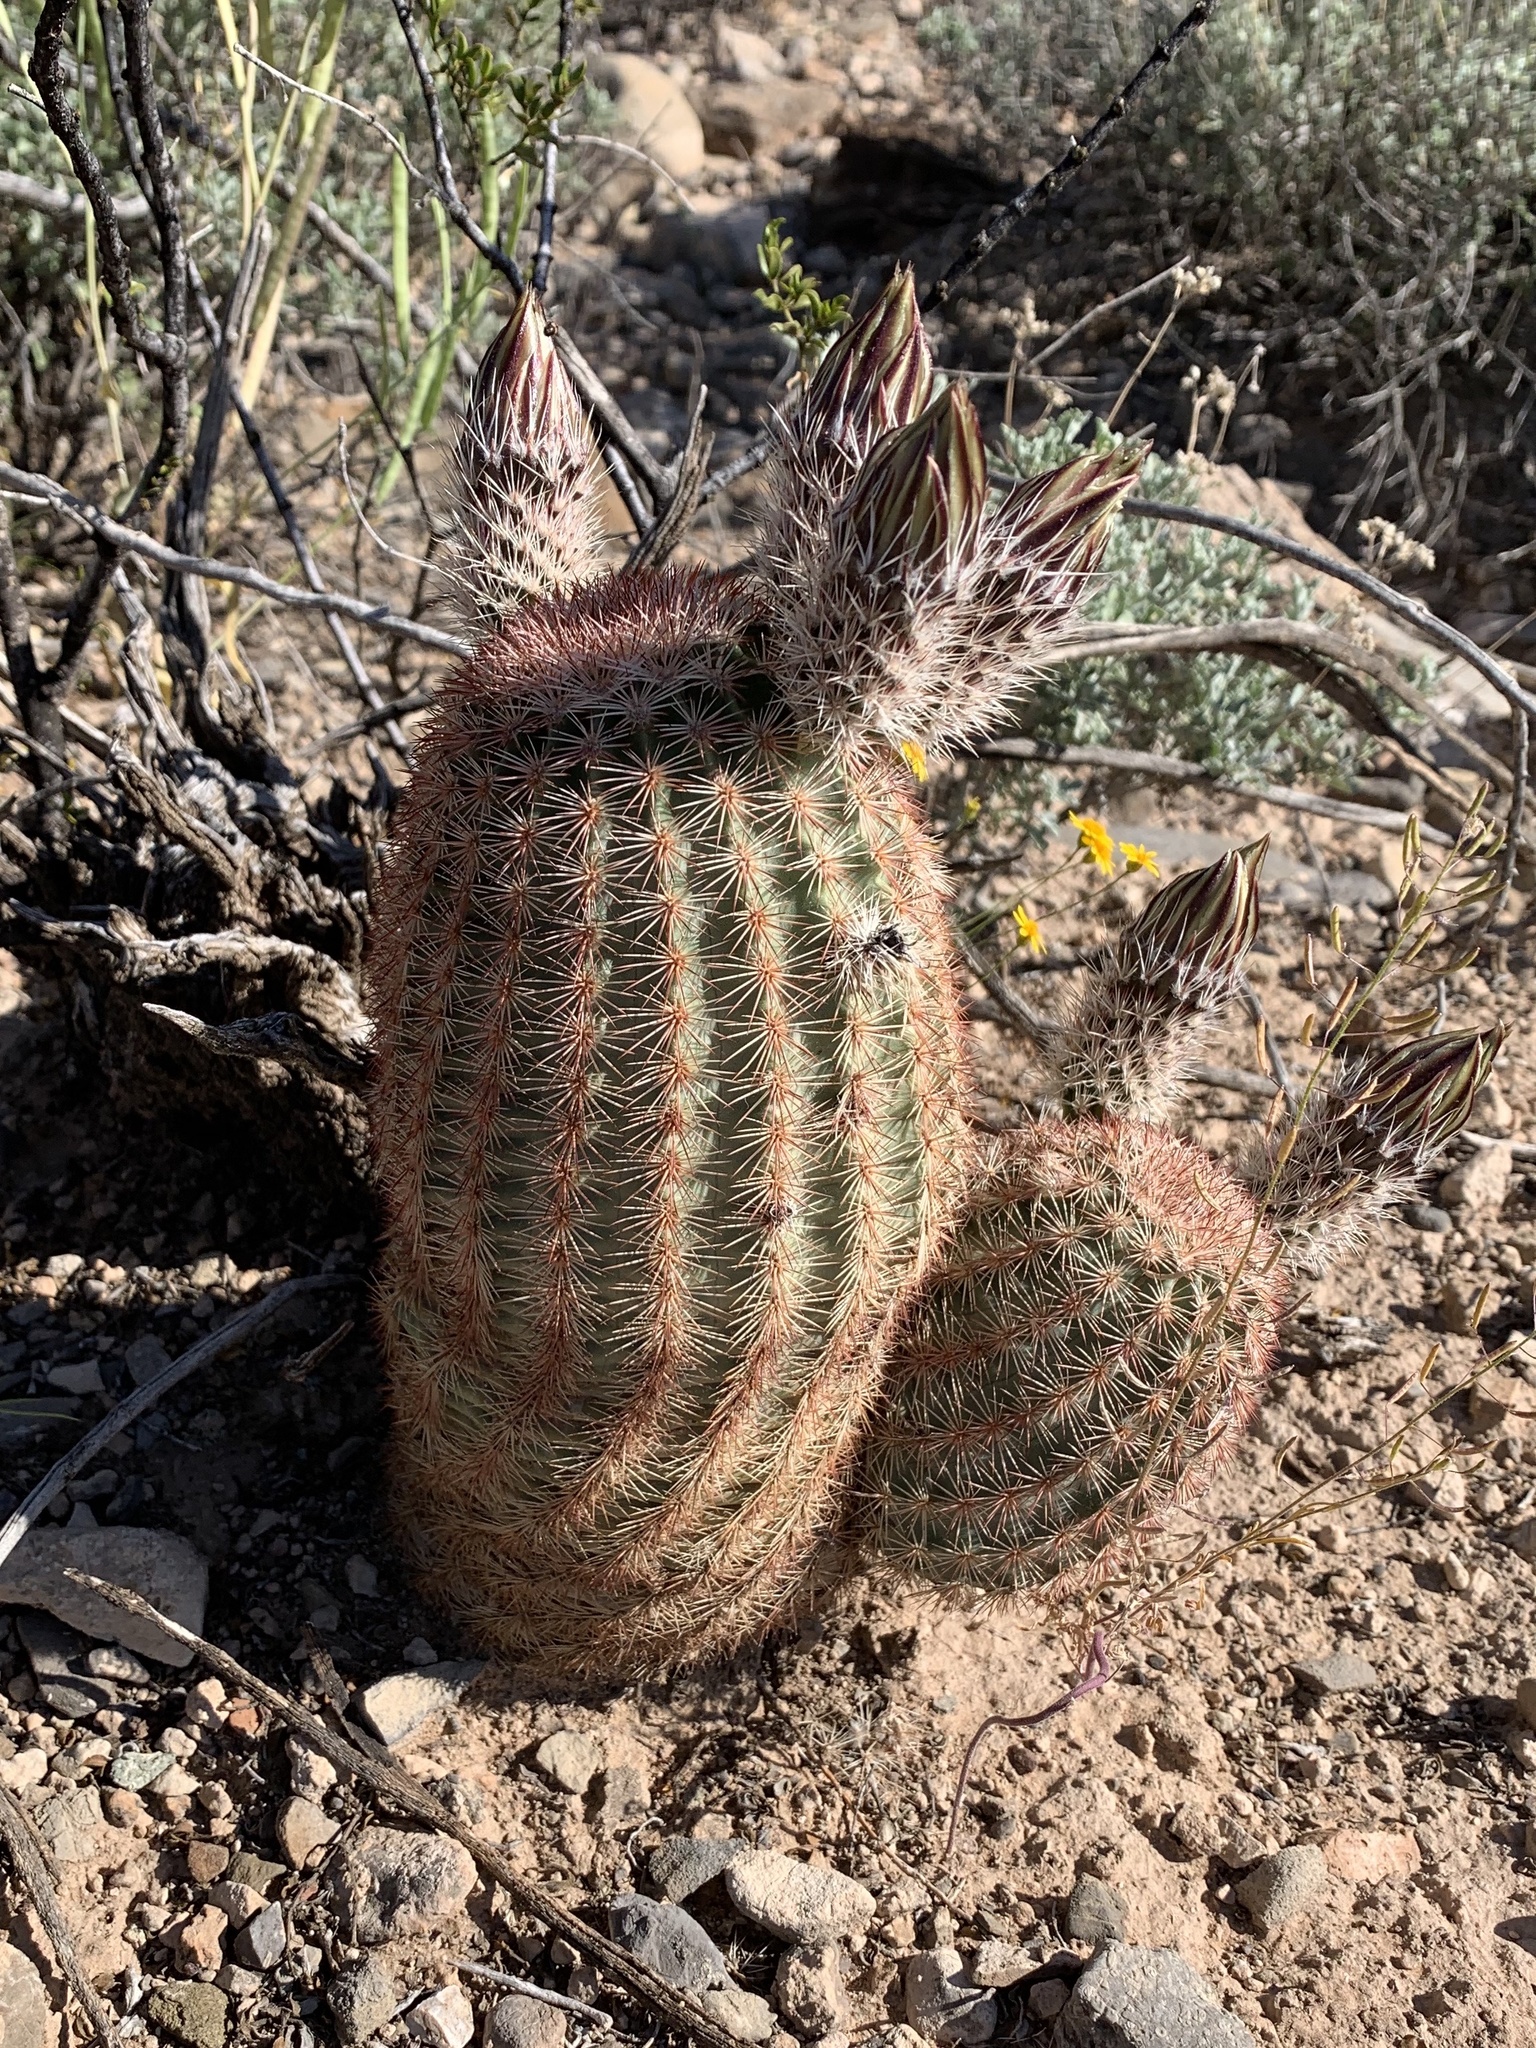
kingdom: Plantae
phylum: Tracheophyta
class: Magnoliopsida
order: Caryophyllales
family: Cactaceae
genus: Echinocereus
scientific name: Echinocereus dasyacanthus
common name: Spiny hedgehog cactus
